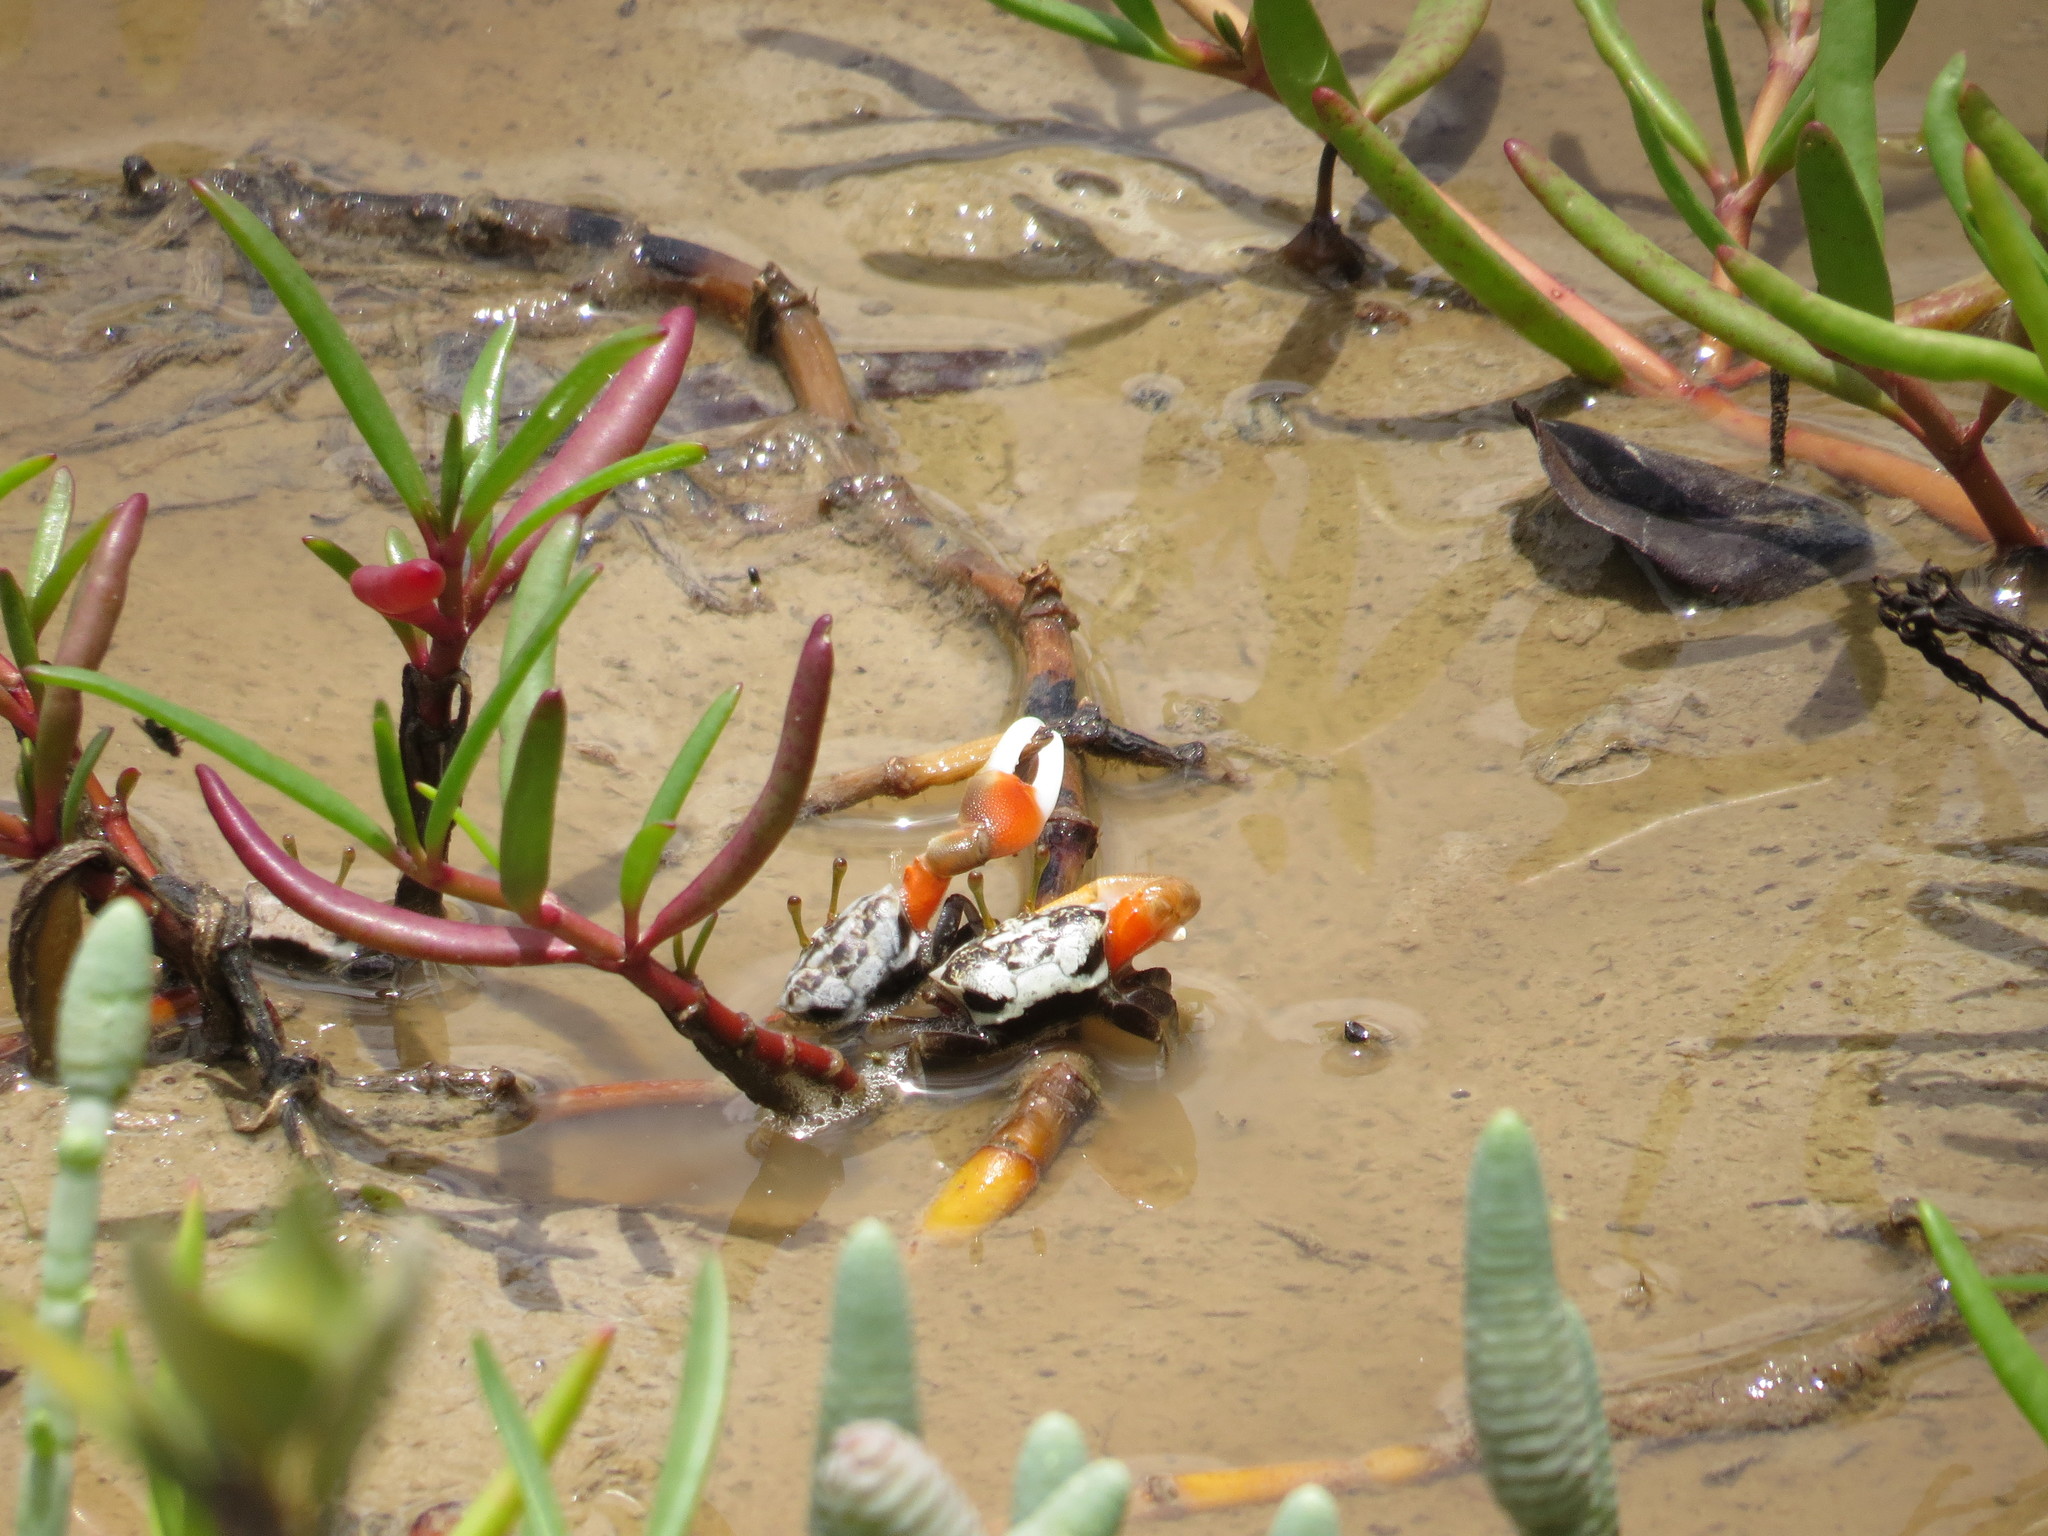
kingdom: Animalia
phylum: Arthropoda
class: Malacostraca
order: Decapoda
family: Ocypodidae
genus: Tubuca
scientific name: Tubuca signata
